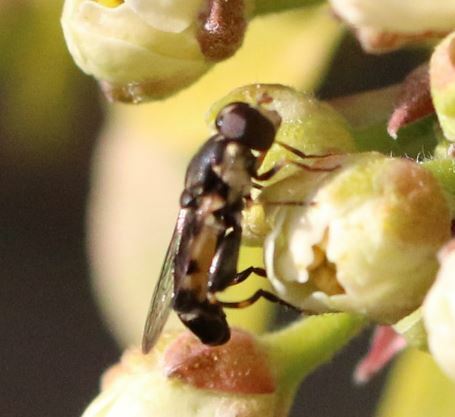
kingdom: Animalia
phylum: Arthropoda
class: Insecta
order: Diptera
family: Syrphidae
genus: Syritta
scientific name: Syritta pipiens
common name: Hover fly
